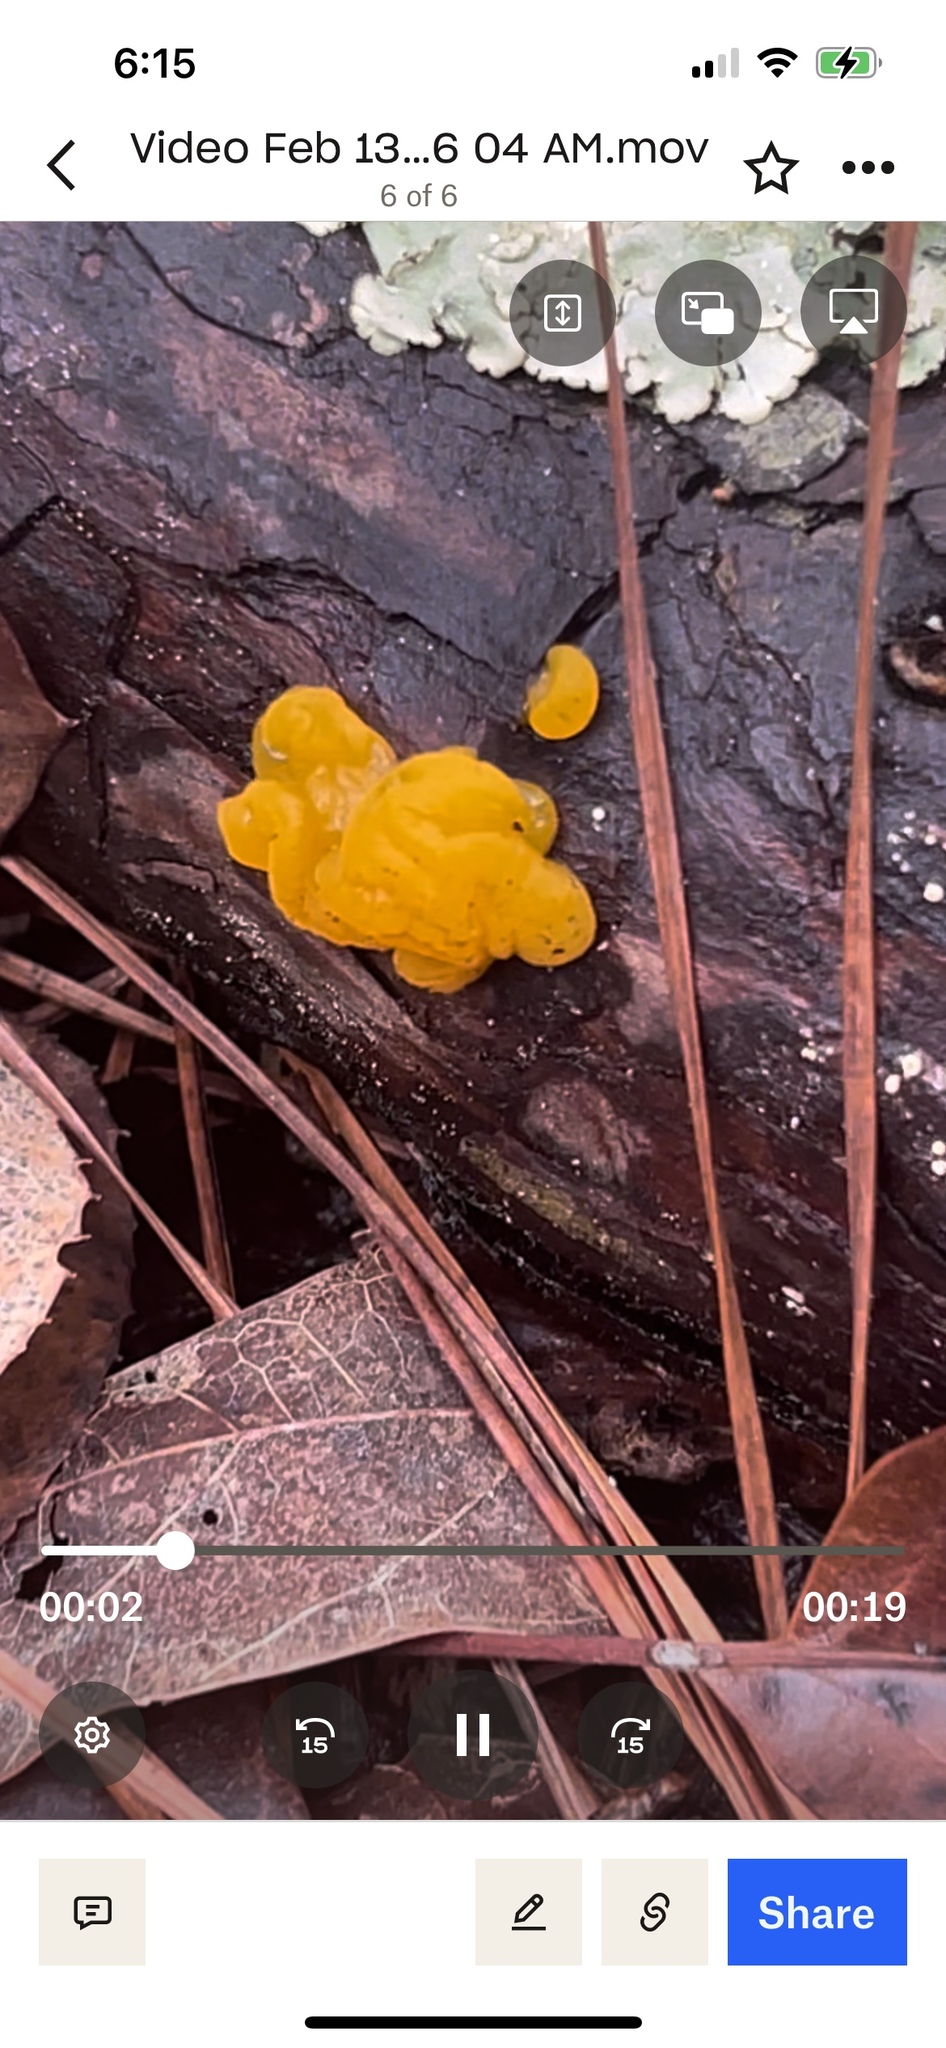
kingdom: Fungi
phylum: Basidiomycota
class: Dacrymycetes
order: Dacrymycetales
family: Dacrymycetaceae
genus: Dacrymyces
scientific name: Dacrymyces chrysospermus
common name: Orange jelly spot
